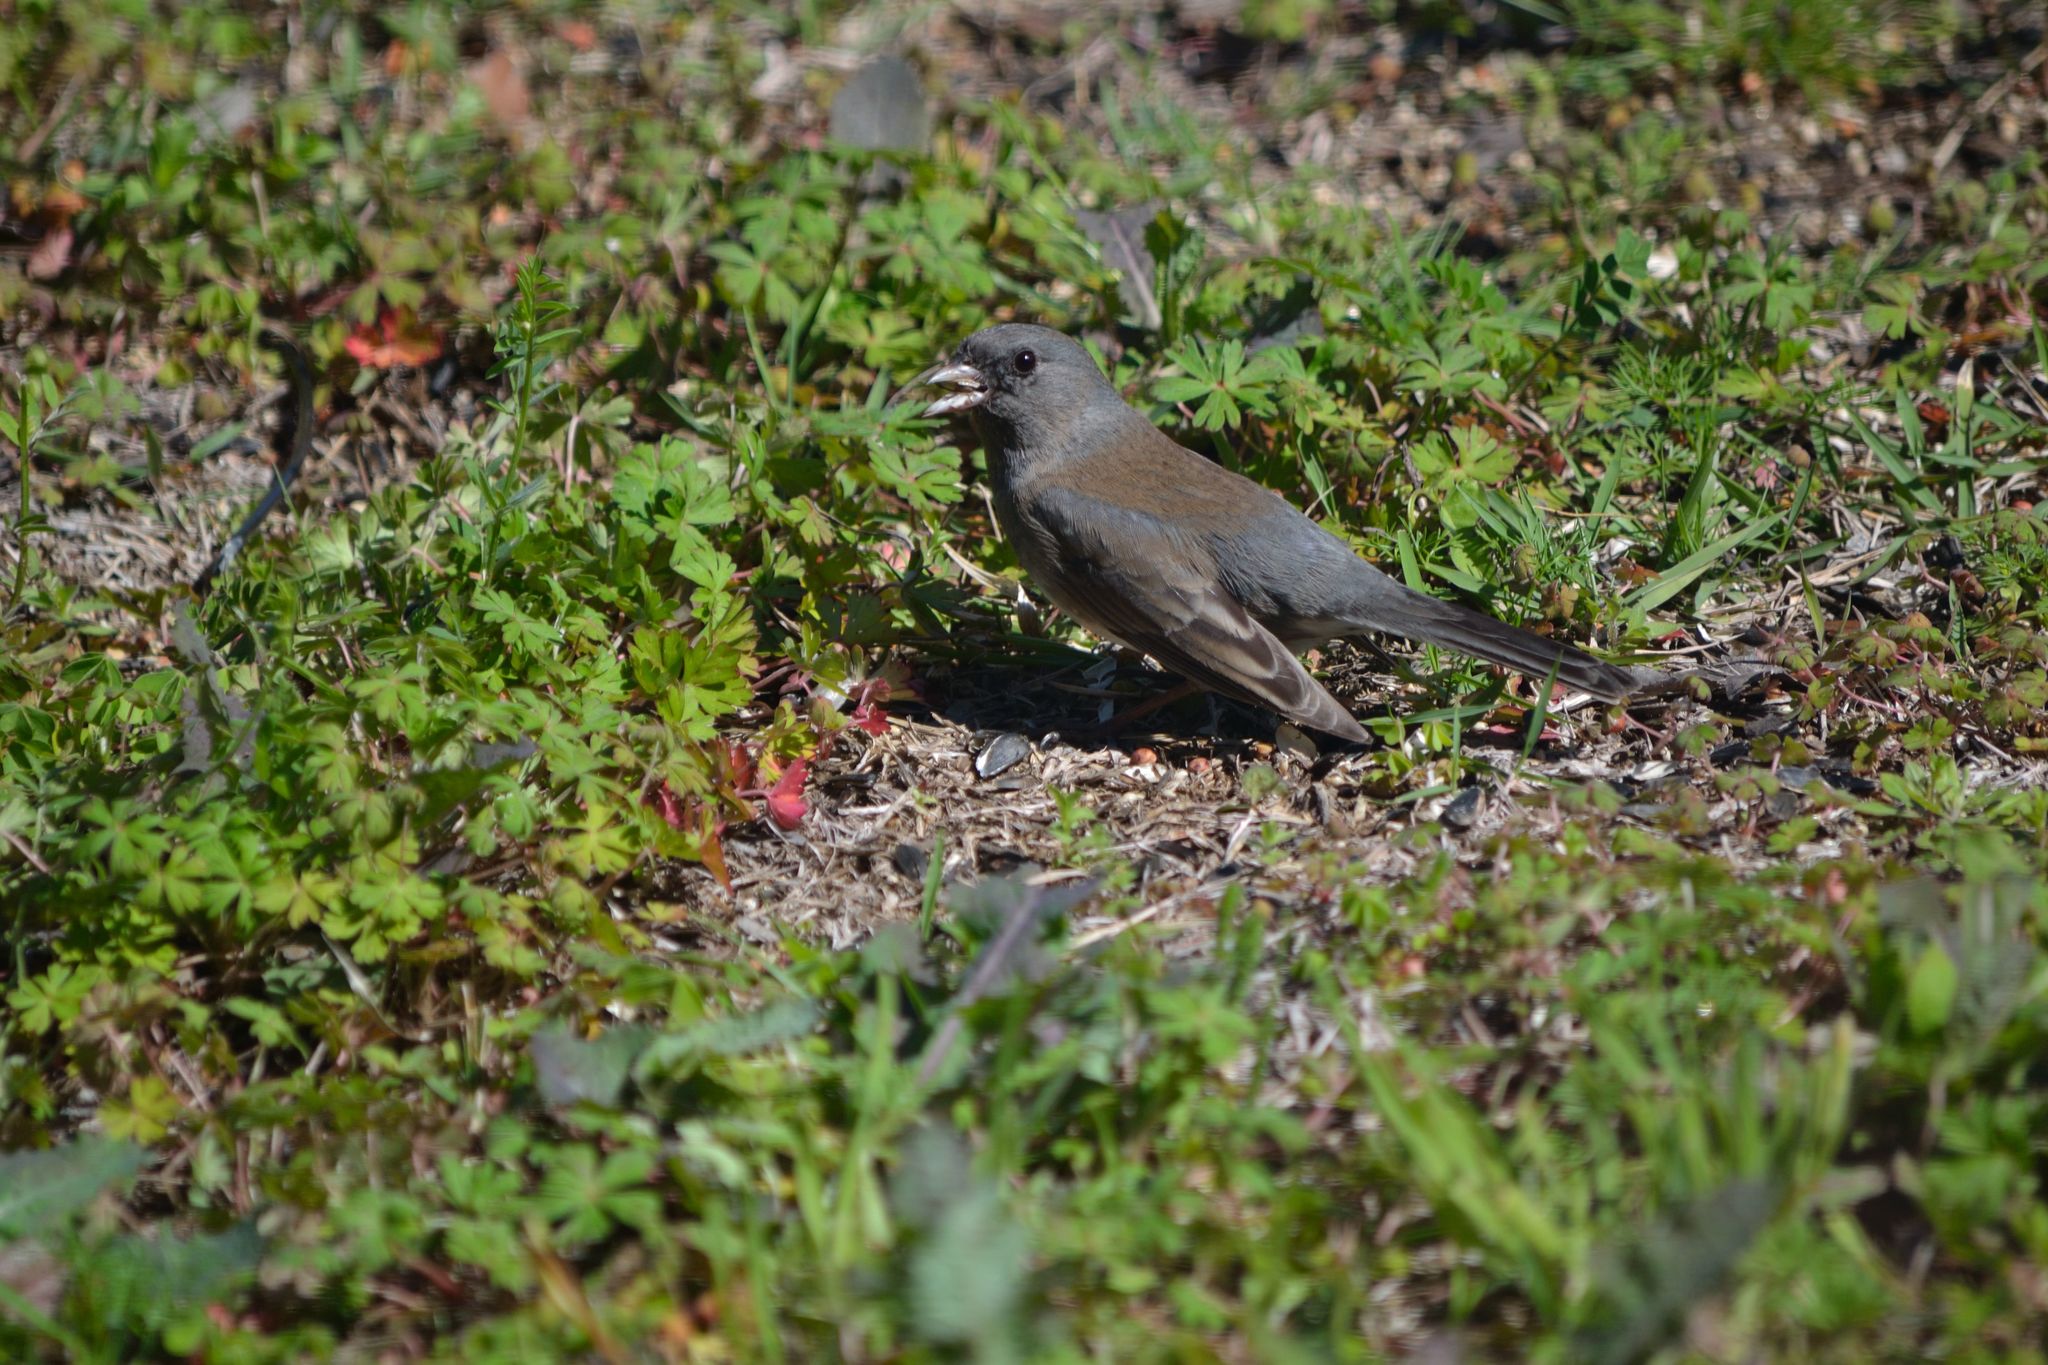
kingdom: Animalia
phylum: Chordata
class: Aves
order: Passeriformes
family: Passerellidae
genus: Junco
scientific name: Junco hyemalis
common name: Dark-eyed junco
